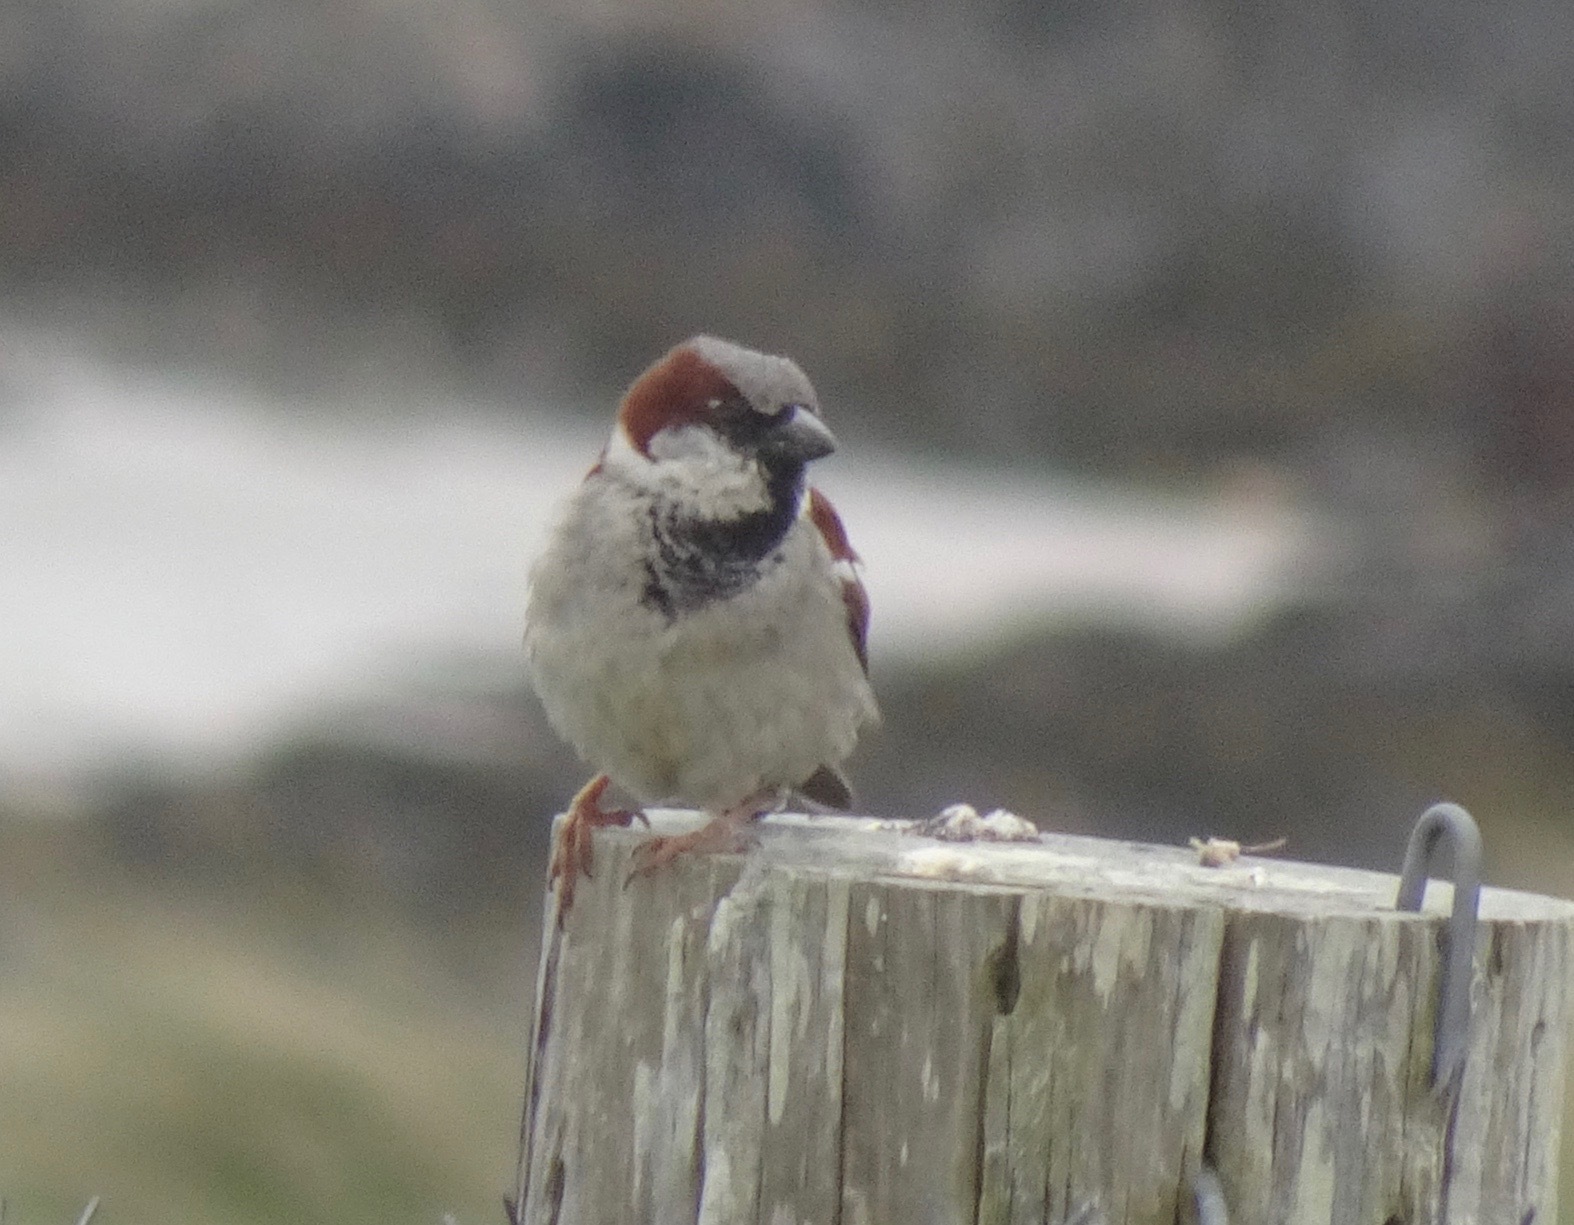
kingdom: Animalia
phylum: Chordata
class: Aves
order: Passeriformes
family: Passeridae
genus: Passer
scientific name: Passer domesticus
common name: House sparrow
